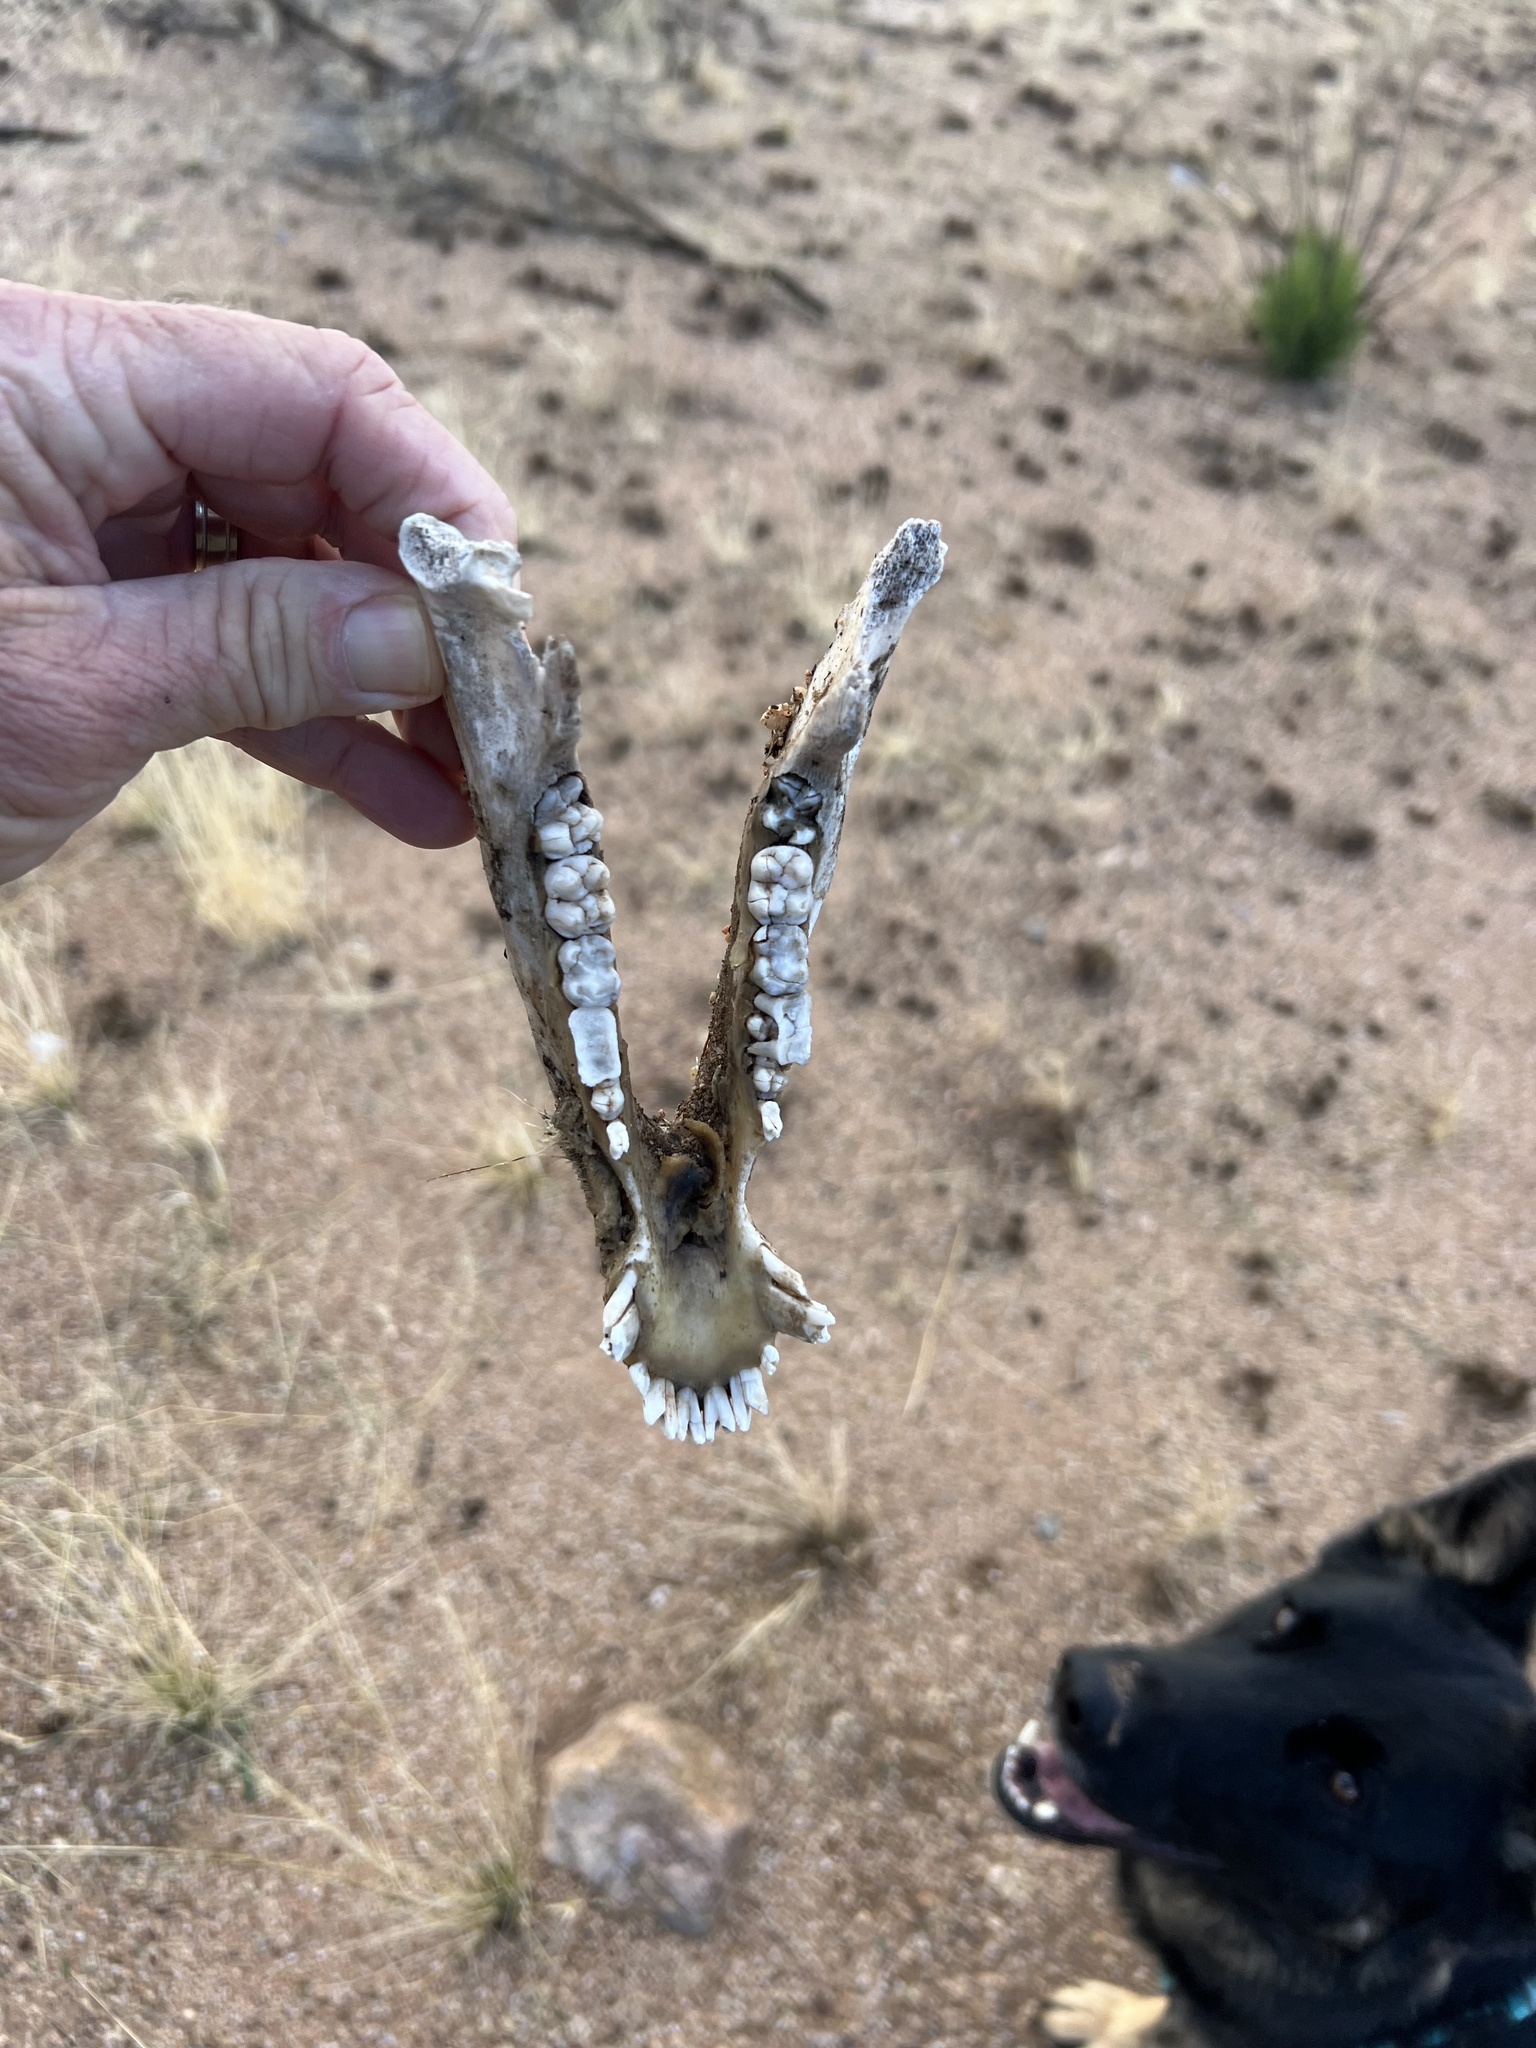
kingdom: Animalia
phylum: Chordata
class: Mammalia
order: Artiodactyla
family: Tayassuidae
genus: Pecari
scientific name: Pecari tajacu
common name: Collared peccary
